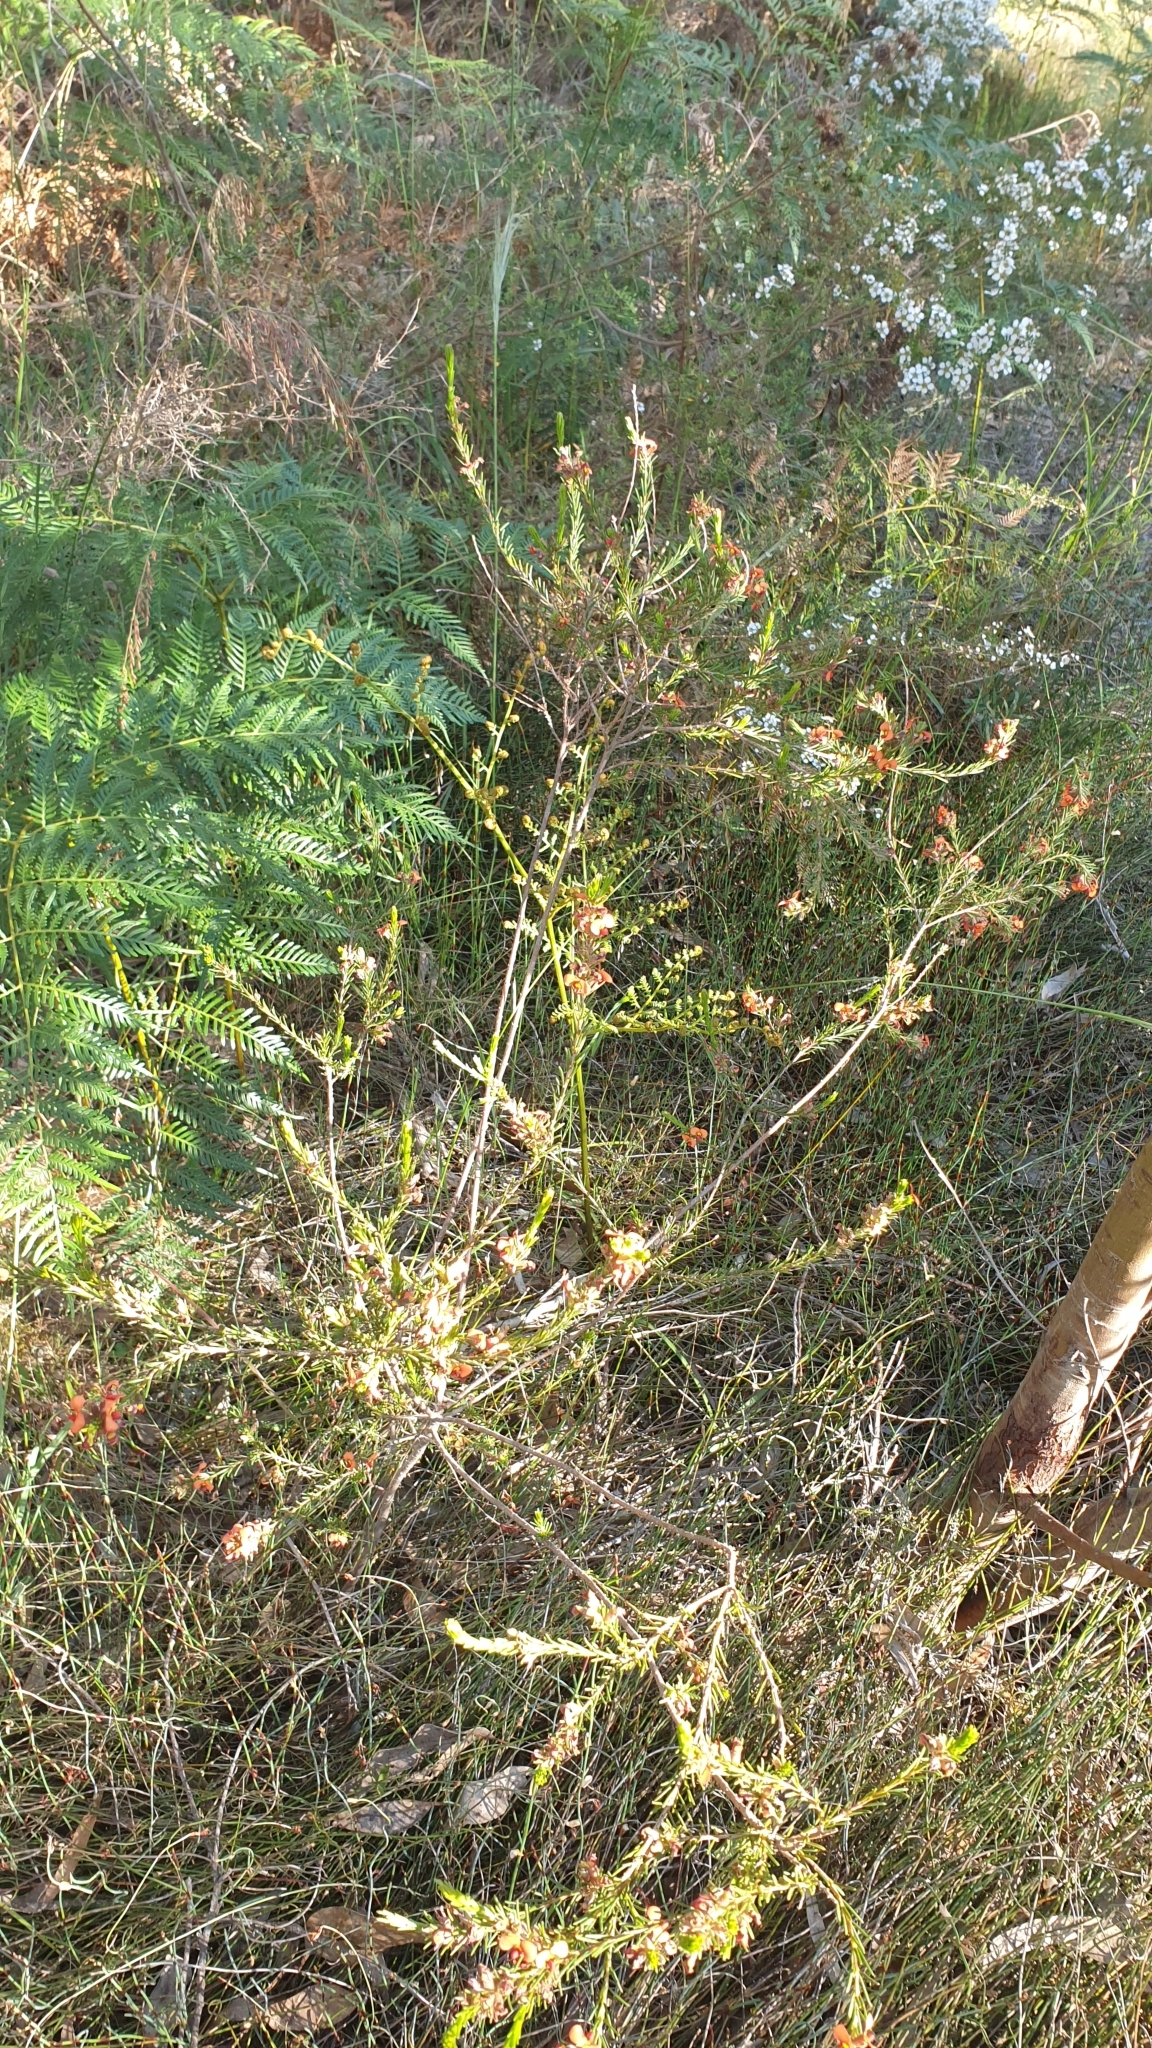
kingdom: Plantae
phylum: Tracheophyta
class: Magnoliopsida
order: Fabales
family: Fabaceae
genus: Dillwynia
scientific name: Dillwynia sericea
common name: Showy parrot-pea
